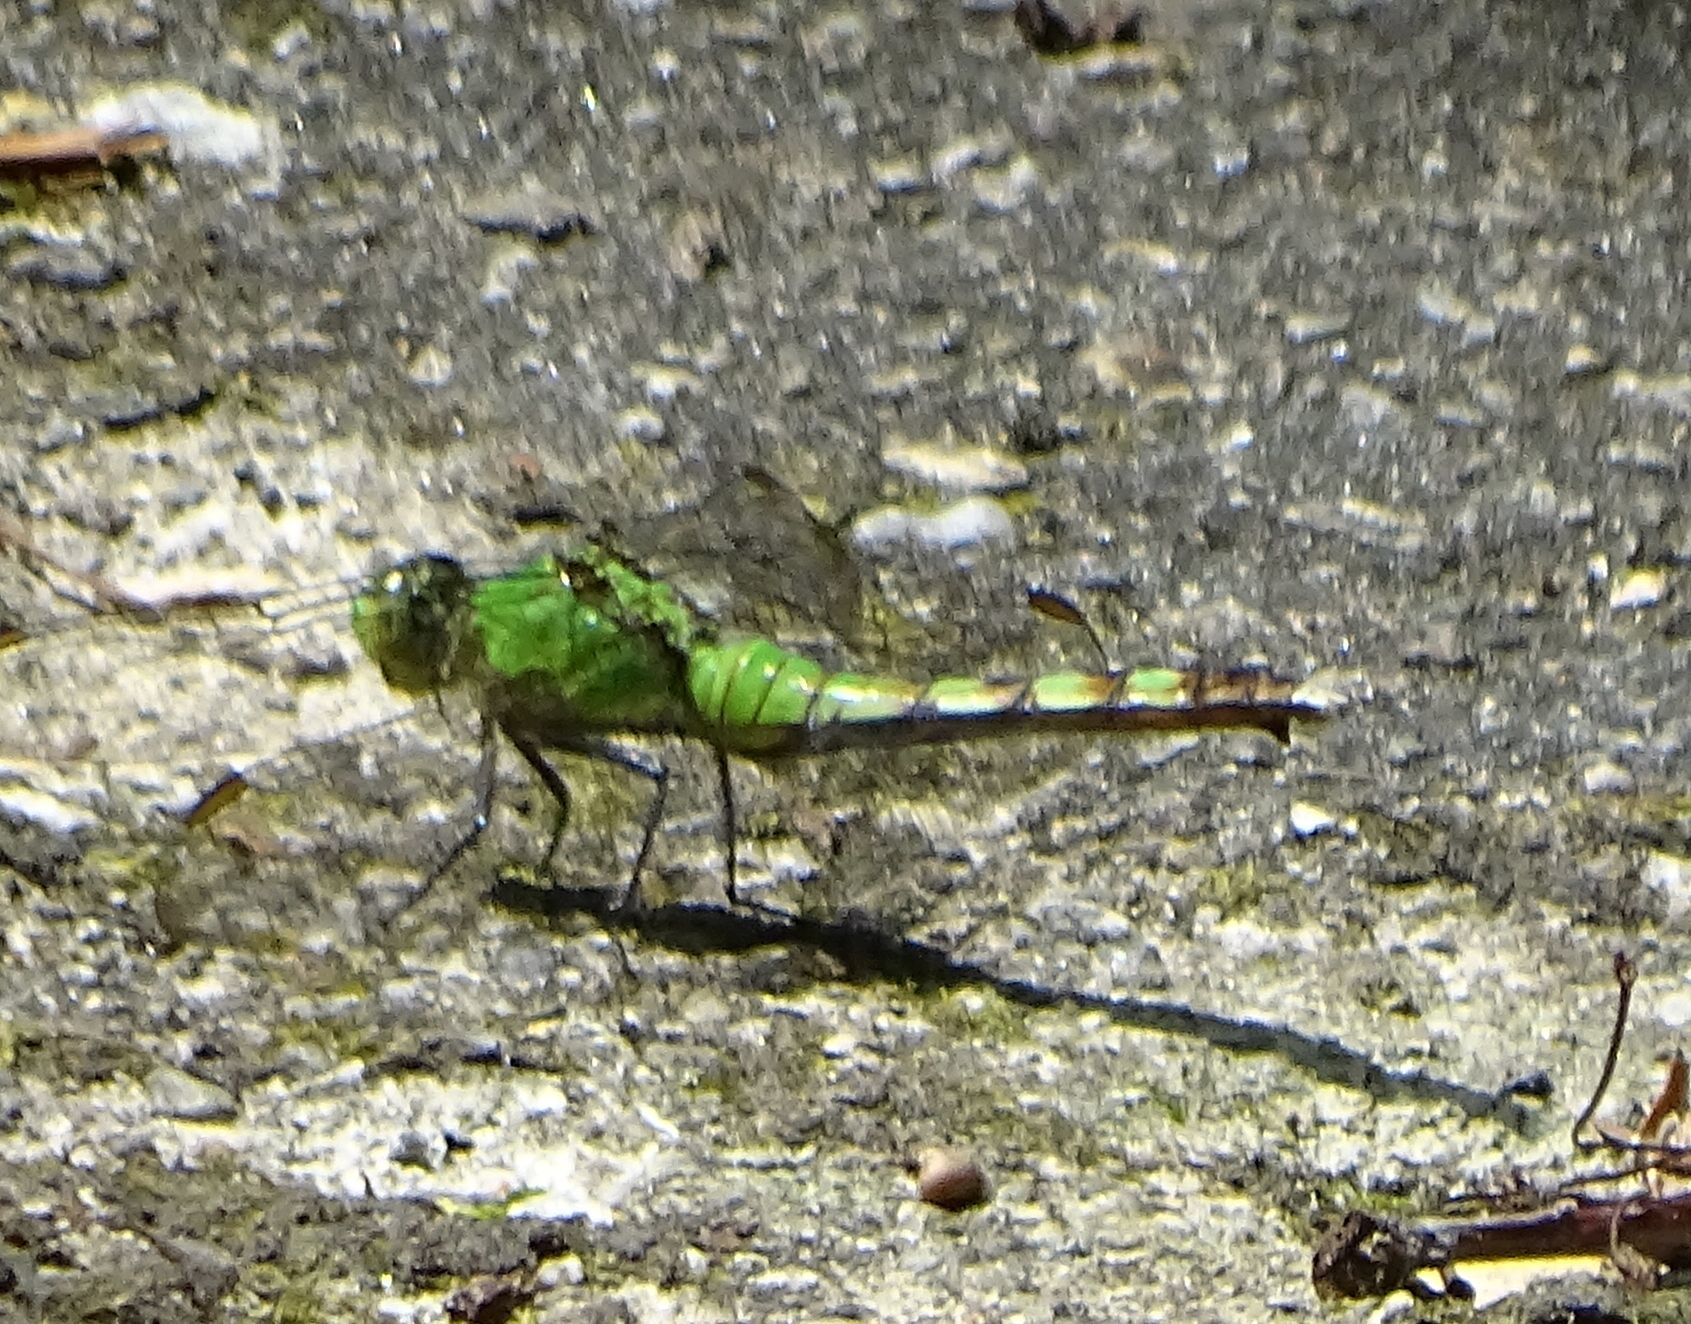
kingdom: Animalia
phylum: Arthropoda
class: Insecta
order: Odonata
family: Libellulidae
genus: Erythemis
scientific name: Erythemis simplicicollis
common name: Eastern pondhawk
